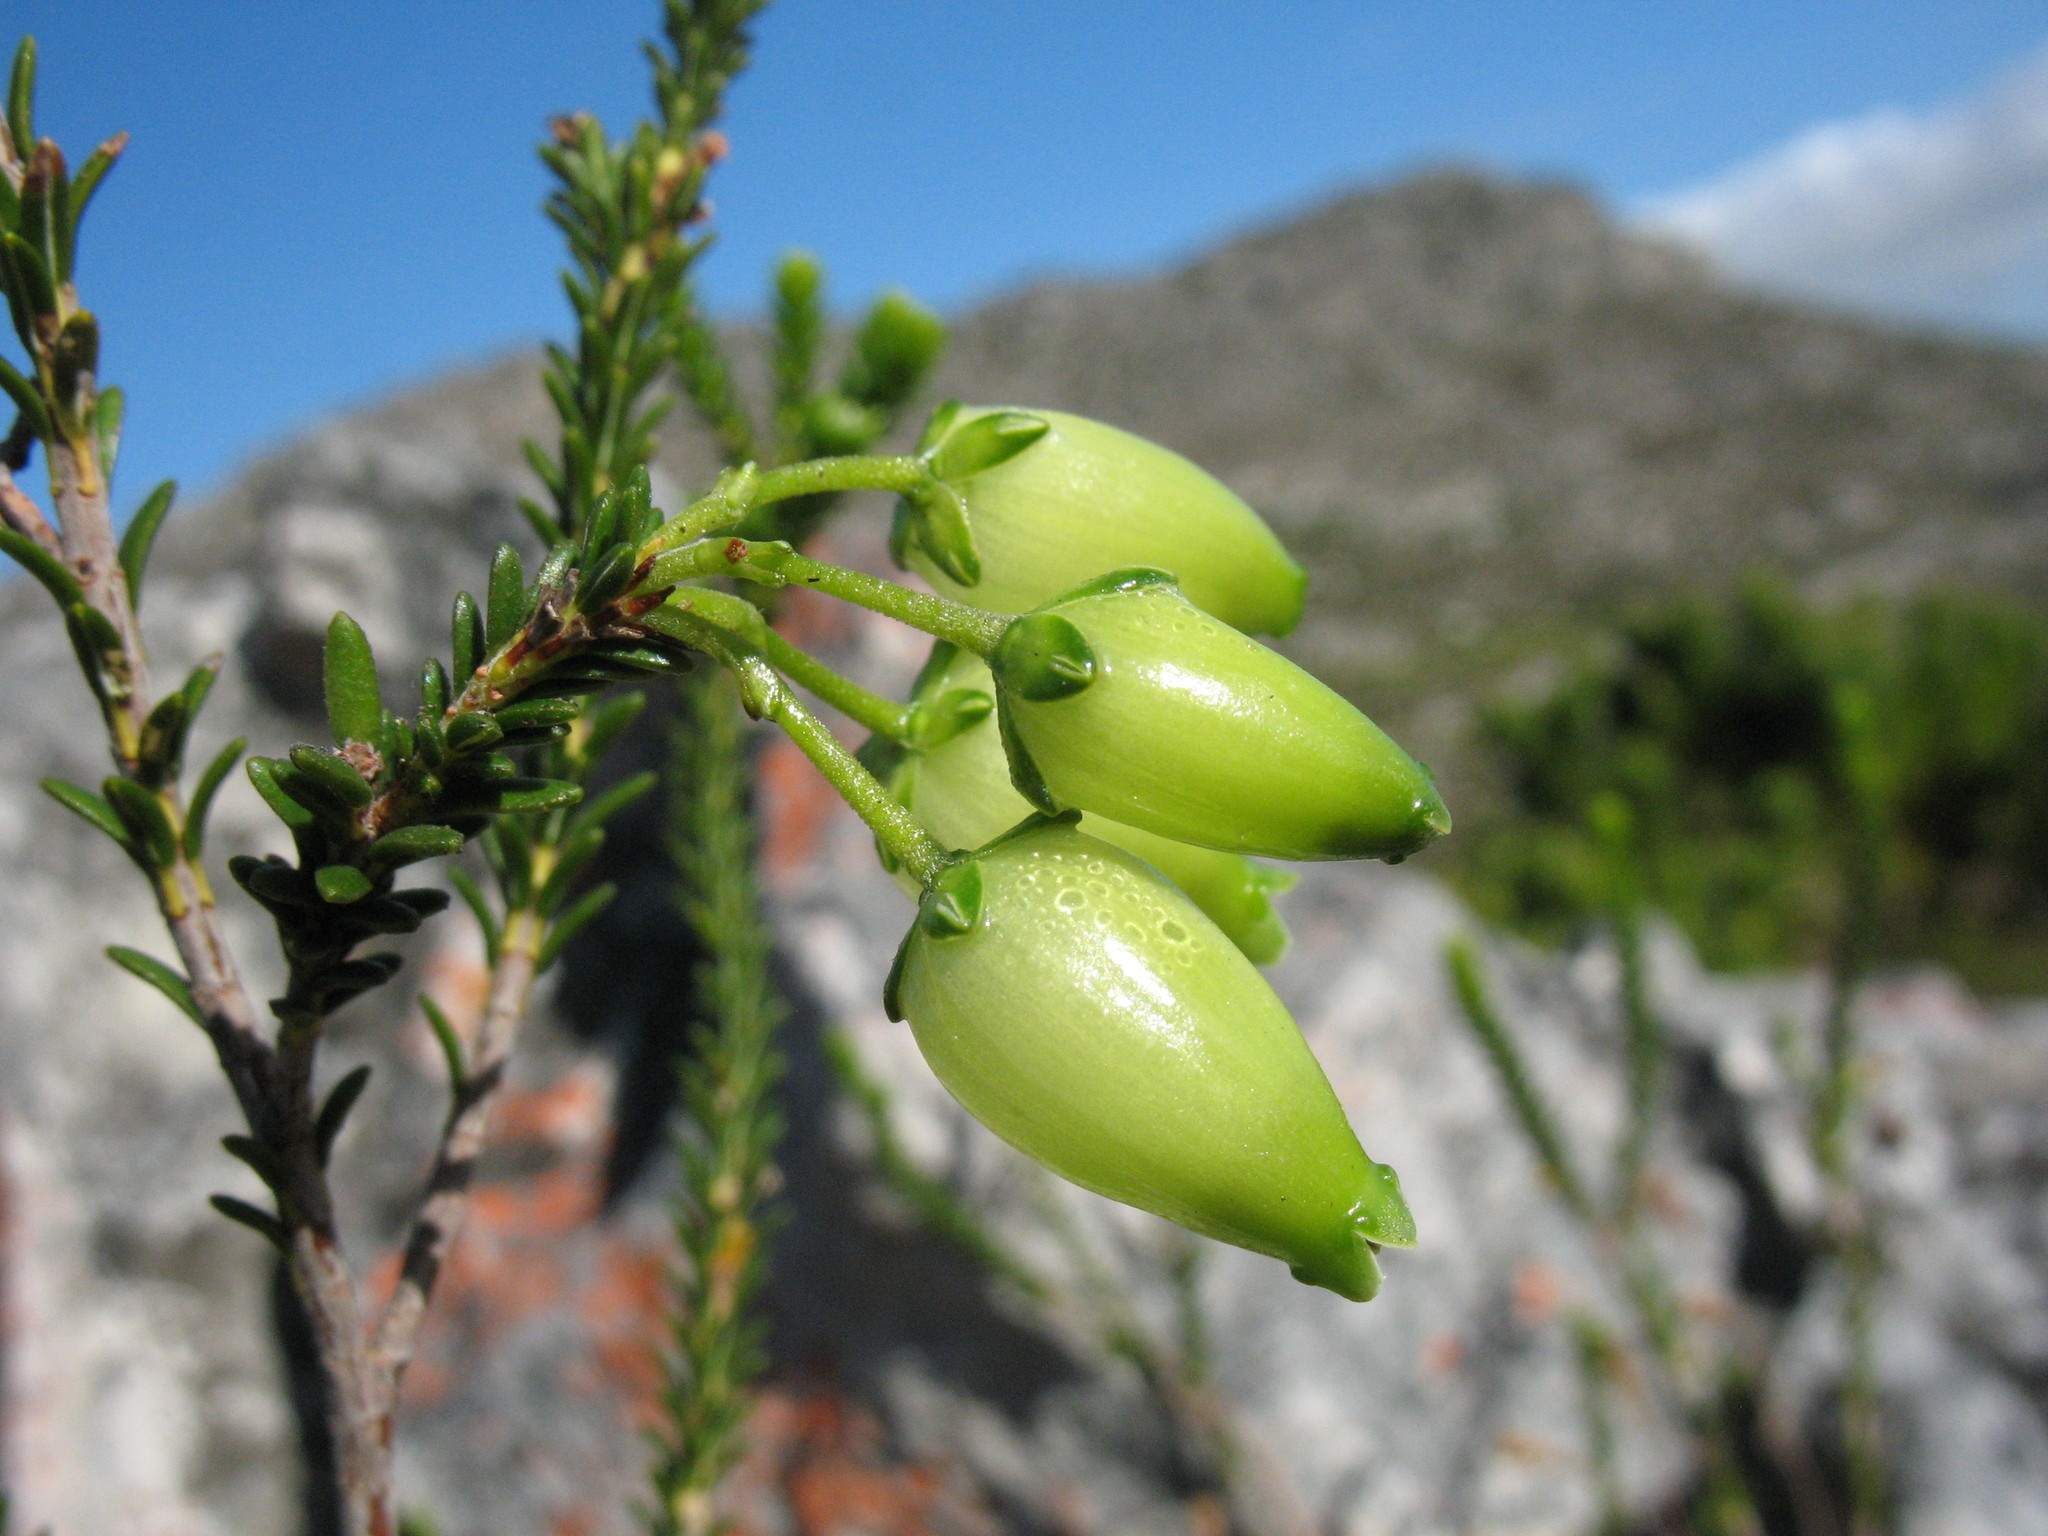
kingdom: Plantae
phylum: Tracheophyta
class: Magnoliopsida
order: Ericales
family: Ericaceae
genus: Erica
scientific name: Erica urna-viridis
